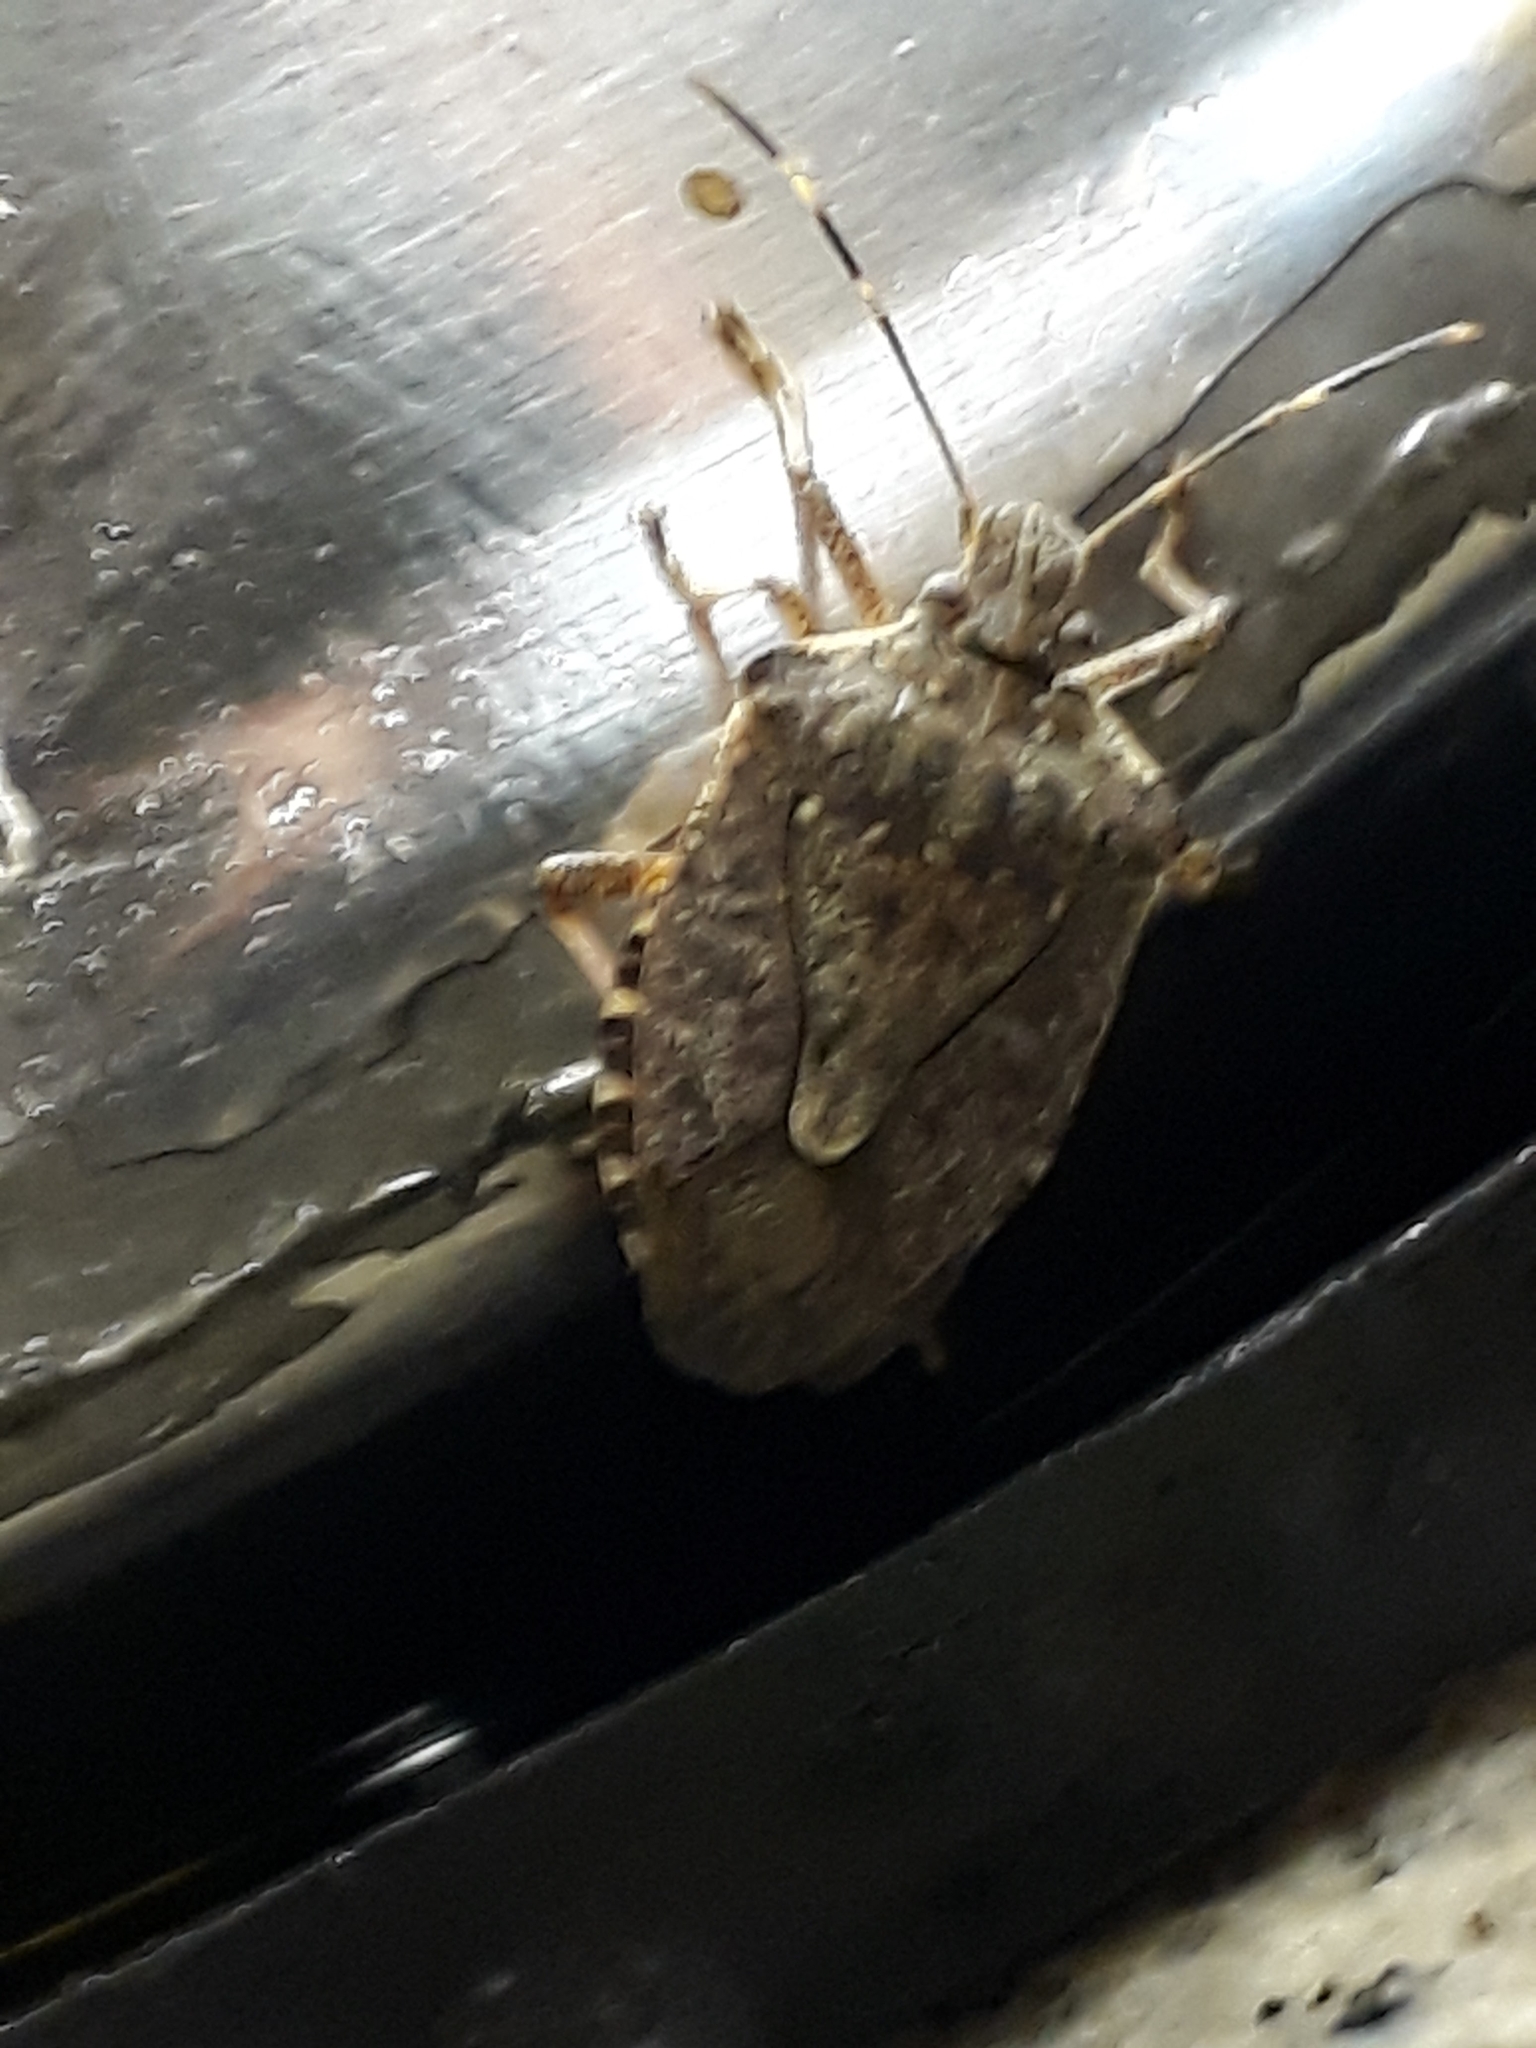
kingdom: Animalia
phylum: Arthropoda
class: Insecta
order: Hemiptera
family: Pentatomidae
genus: Halyomorpha
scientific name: Halyomorpha halys
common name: Brown marmorated stink bug
